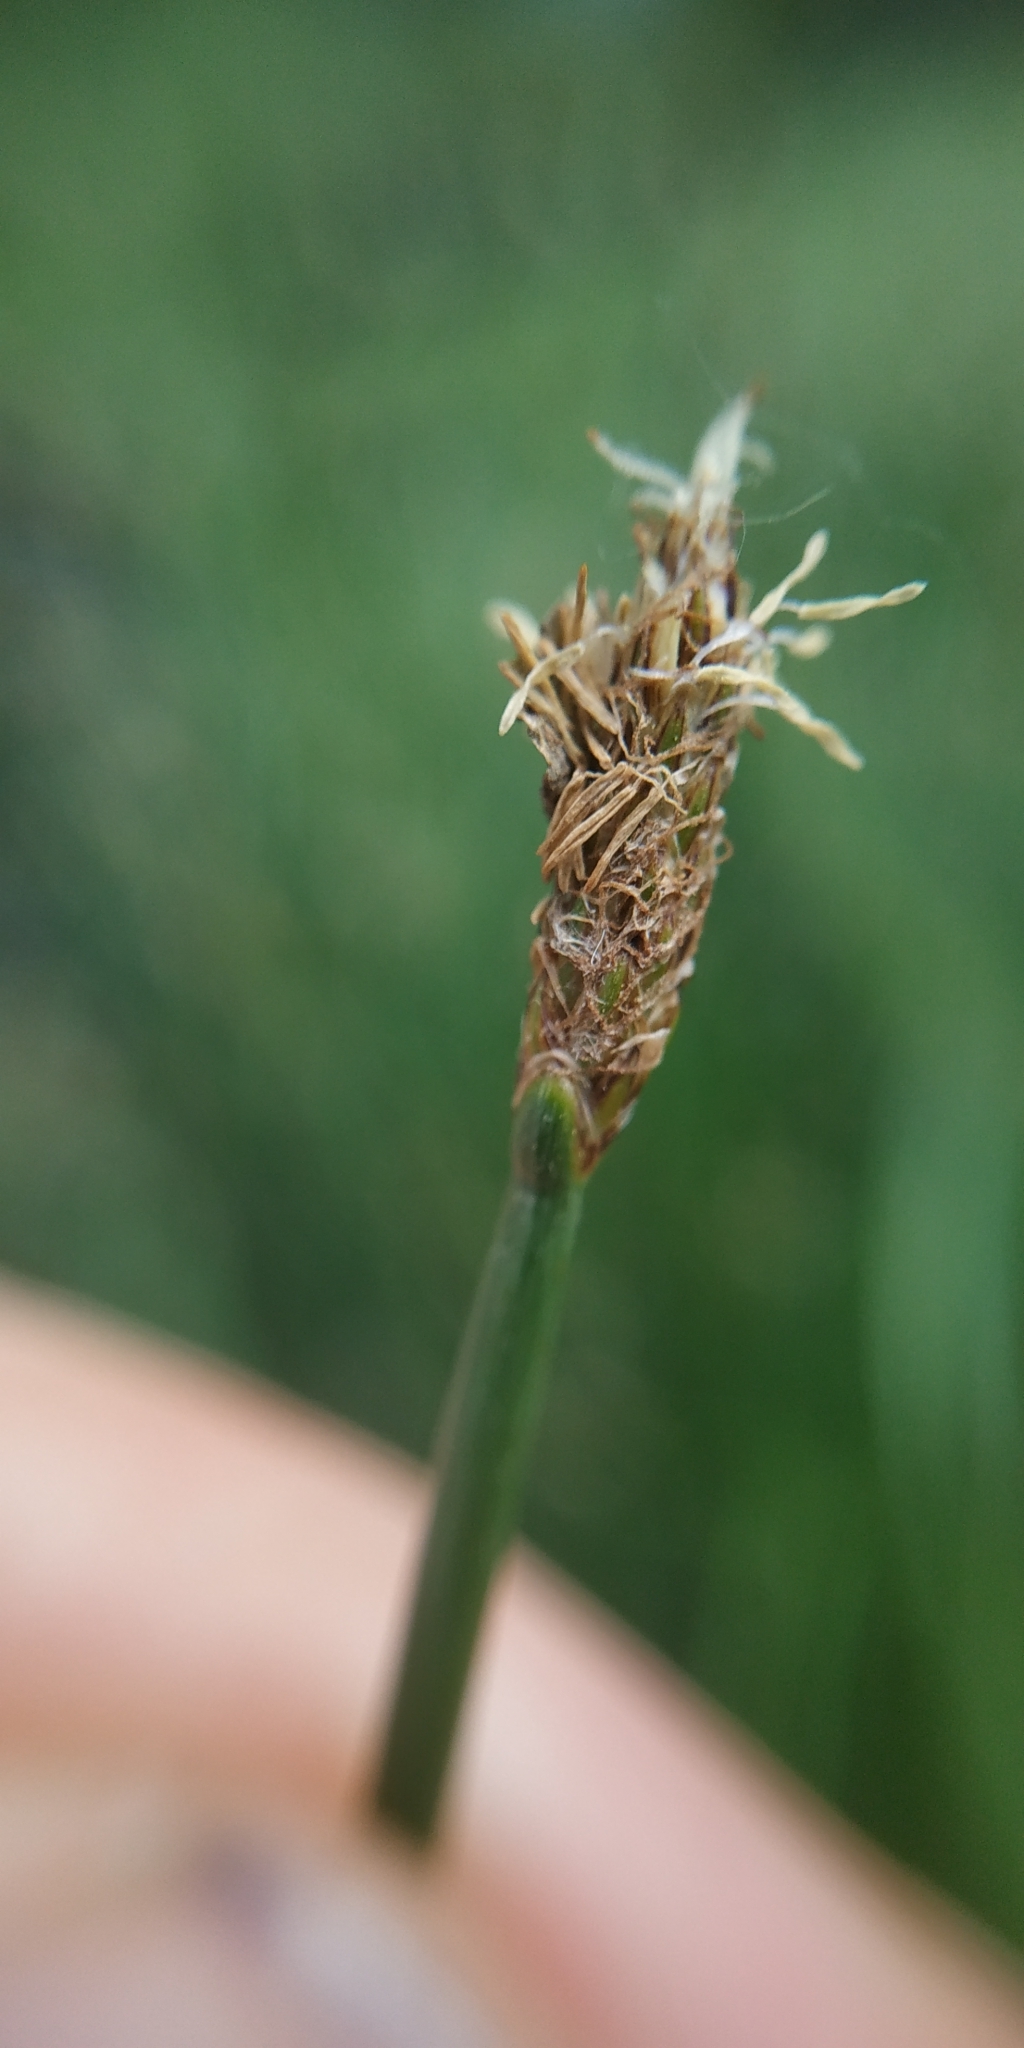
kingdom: Plantae
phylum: Tracheophyta
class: Liliopsida
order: Poales
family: Cyperaceae
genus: Eleocharis
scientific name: Eleocharis palustris
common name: Common spike-rush
